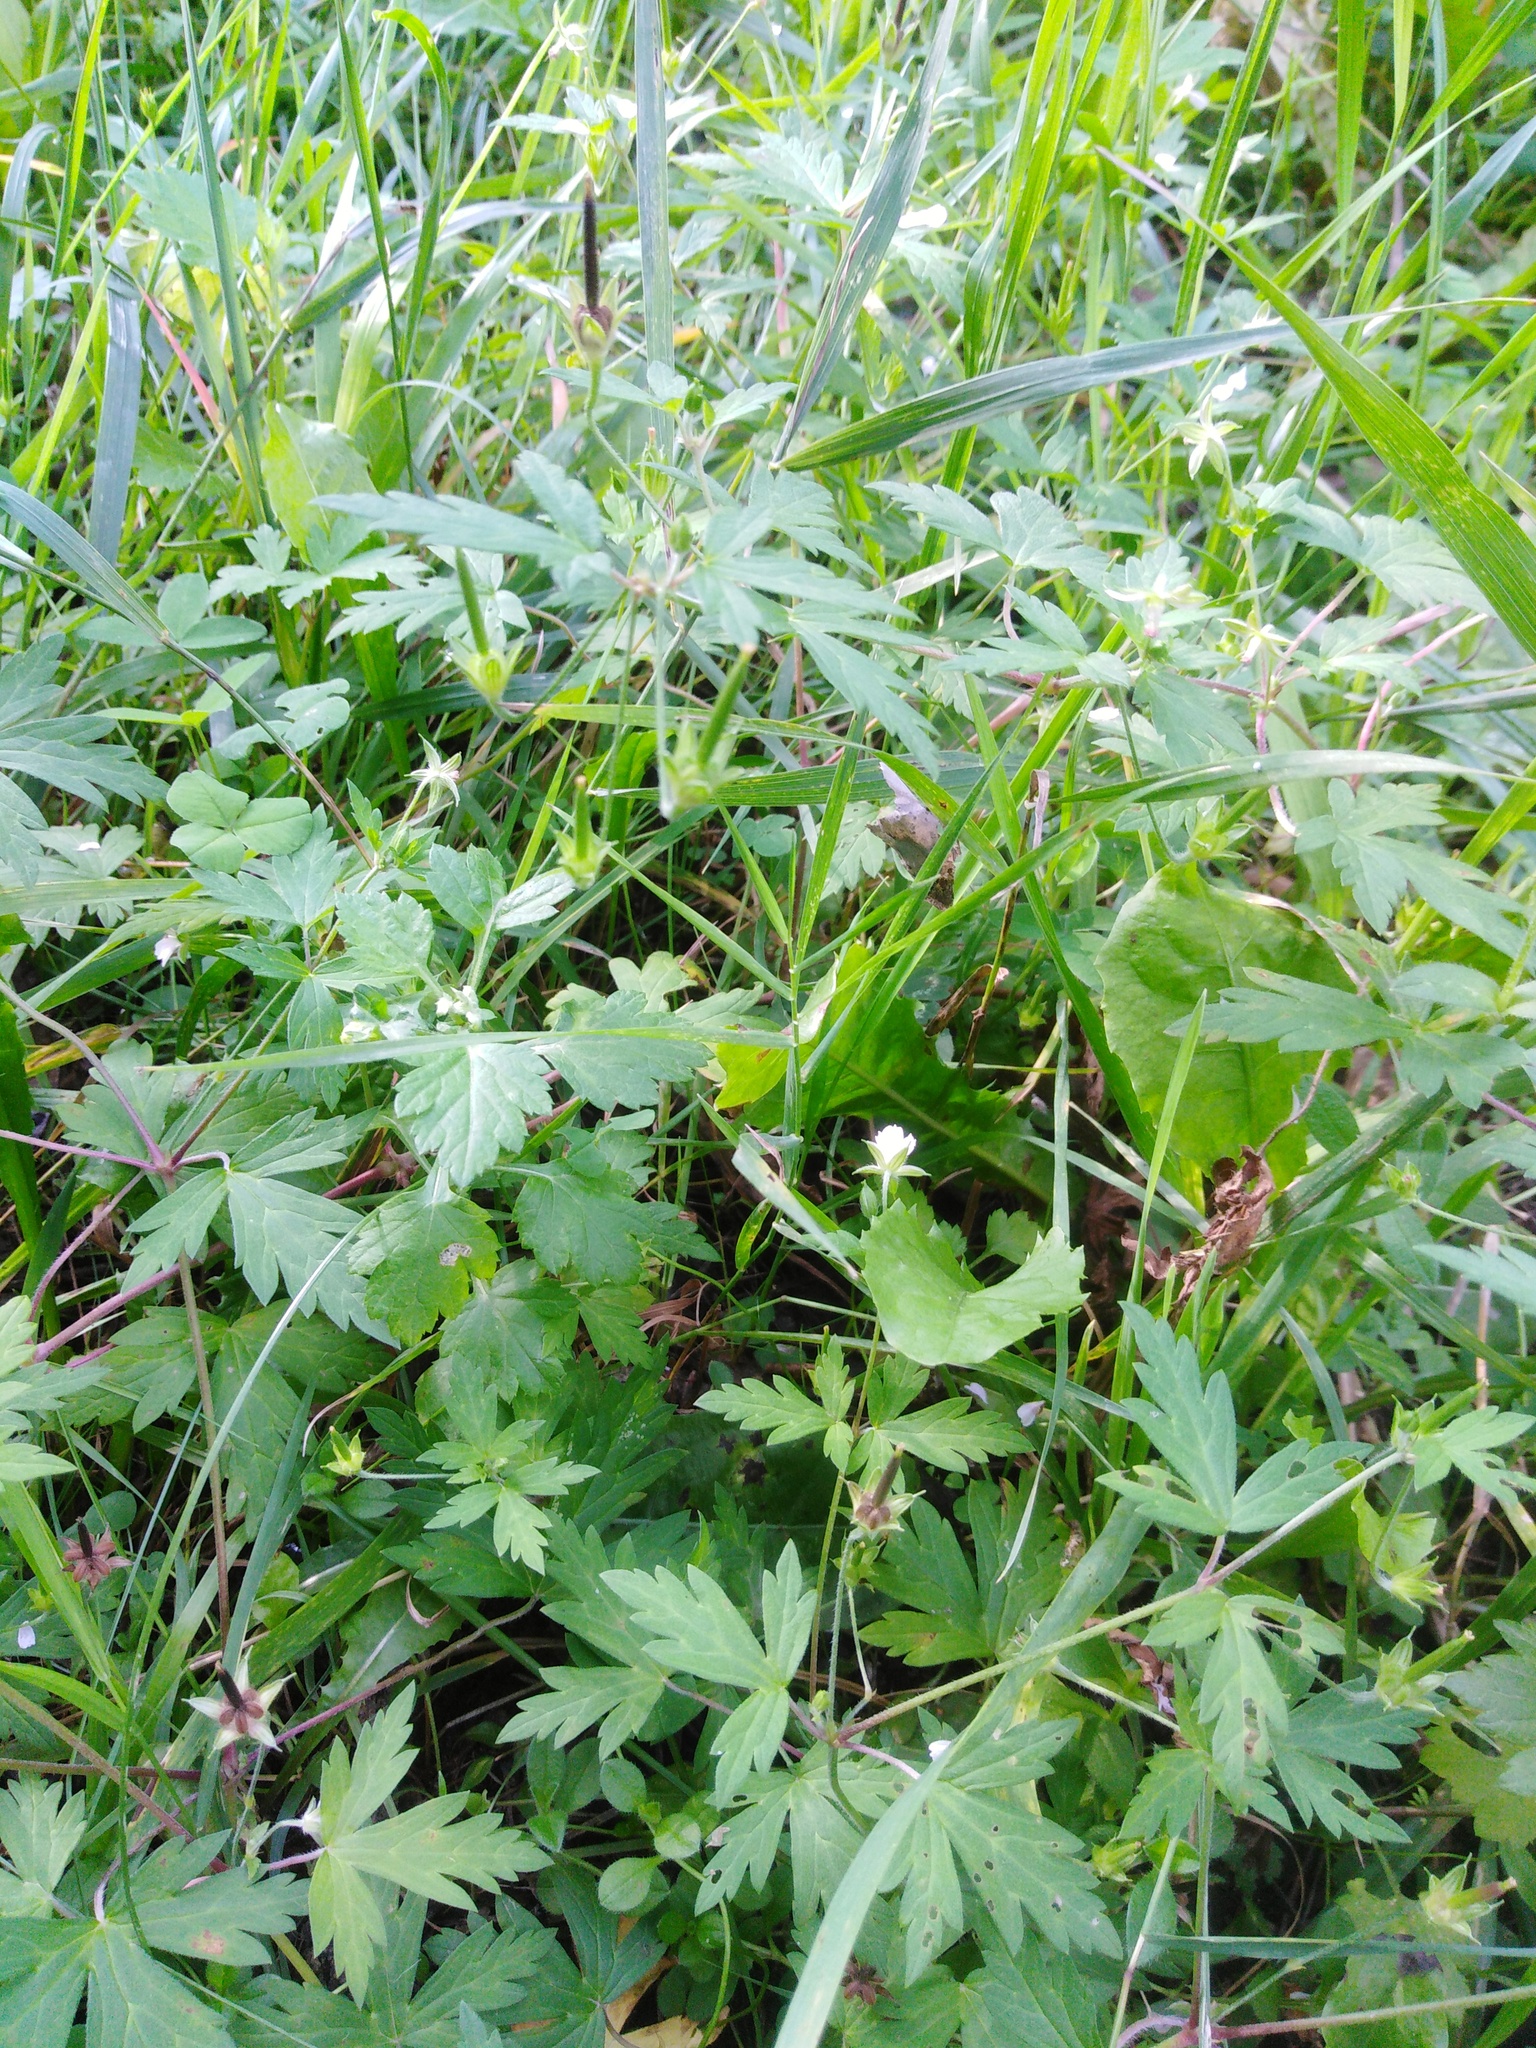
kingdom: Plantae
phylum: Tracheophyta
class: Magnoliopsida
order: Geraniales
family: Geraniaceae
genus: Geranium
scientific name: Geranium sibiricum
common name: Siberian crane's-bill
